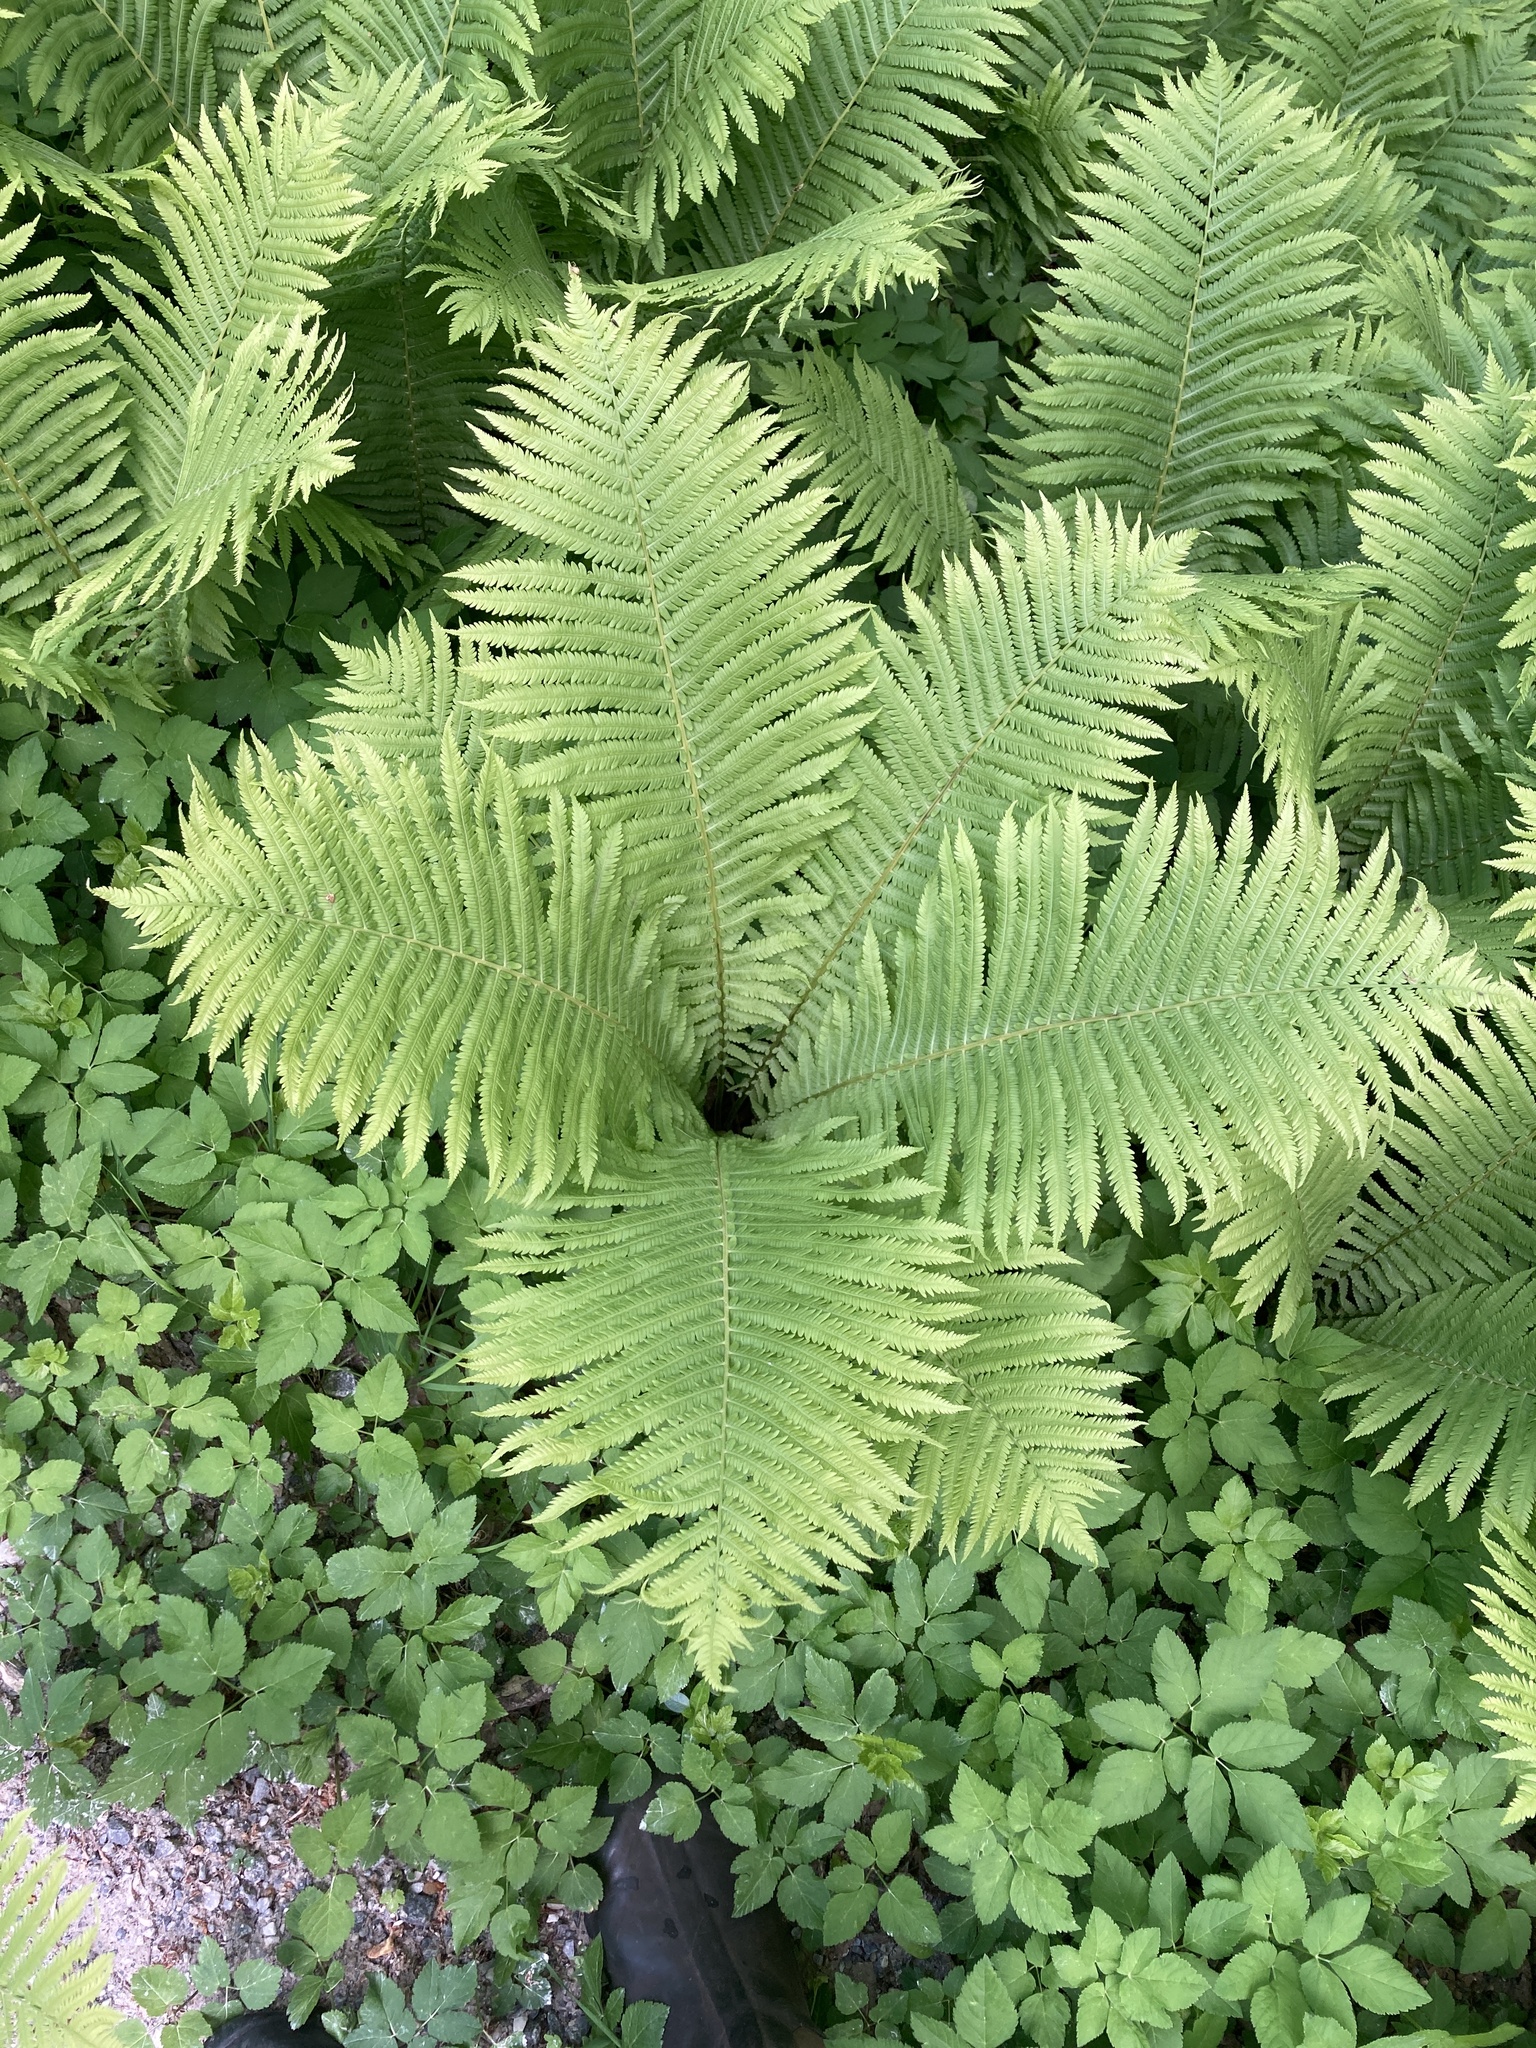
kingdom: Plantae
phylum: Tracheophyta
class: Polypodiopsida
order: Polypodiales
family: Onocleaceae
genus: Matteuccia
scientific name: Matteuccia struthiopteris
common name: Ostrich fern
